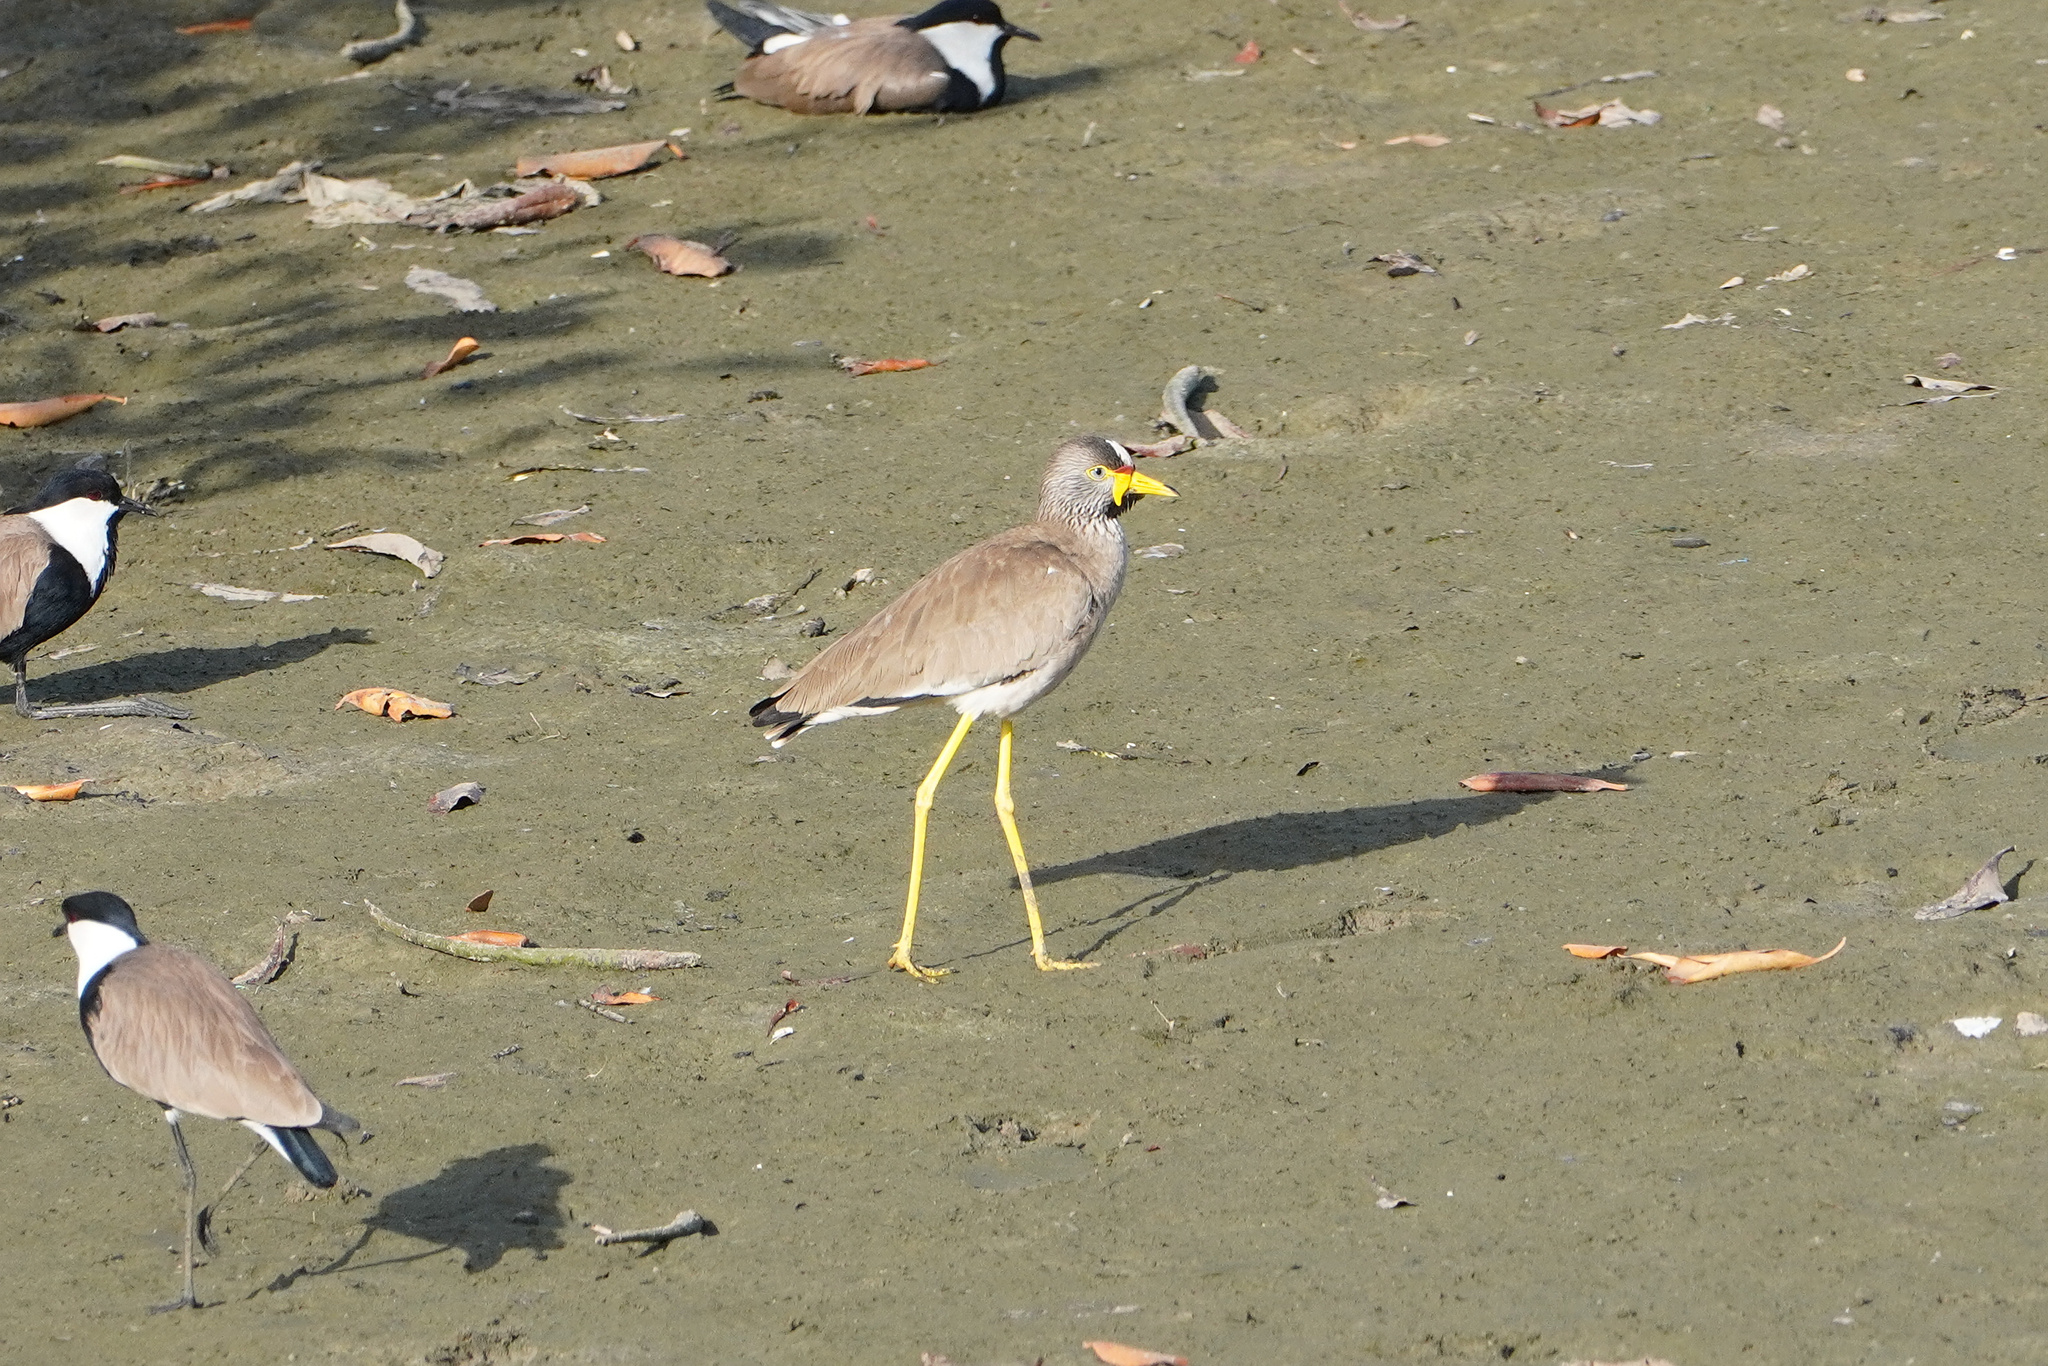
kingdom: Animalia
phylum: Chordata
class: Aves
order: Charadriiformes
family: Charadriidae
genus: Vanellus
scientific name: Vanellus senegallus
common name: African wattled lapwing
